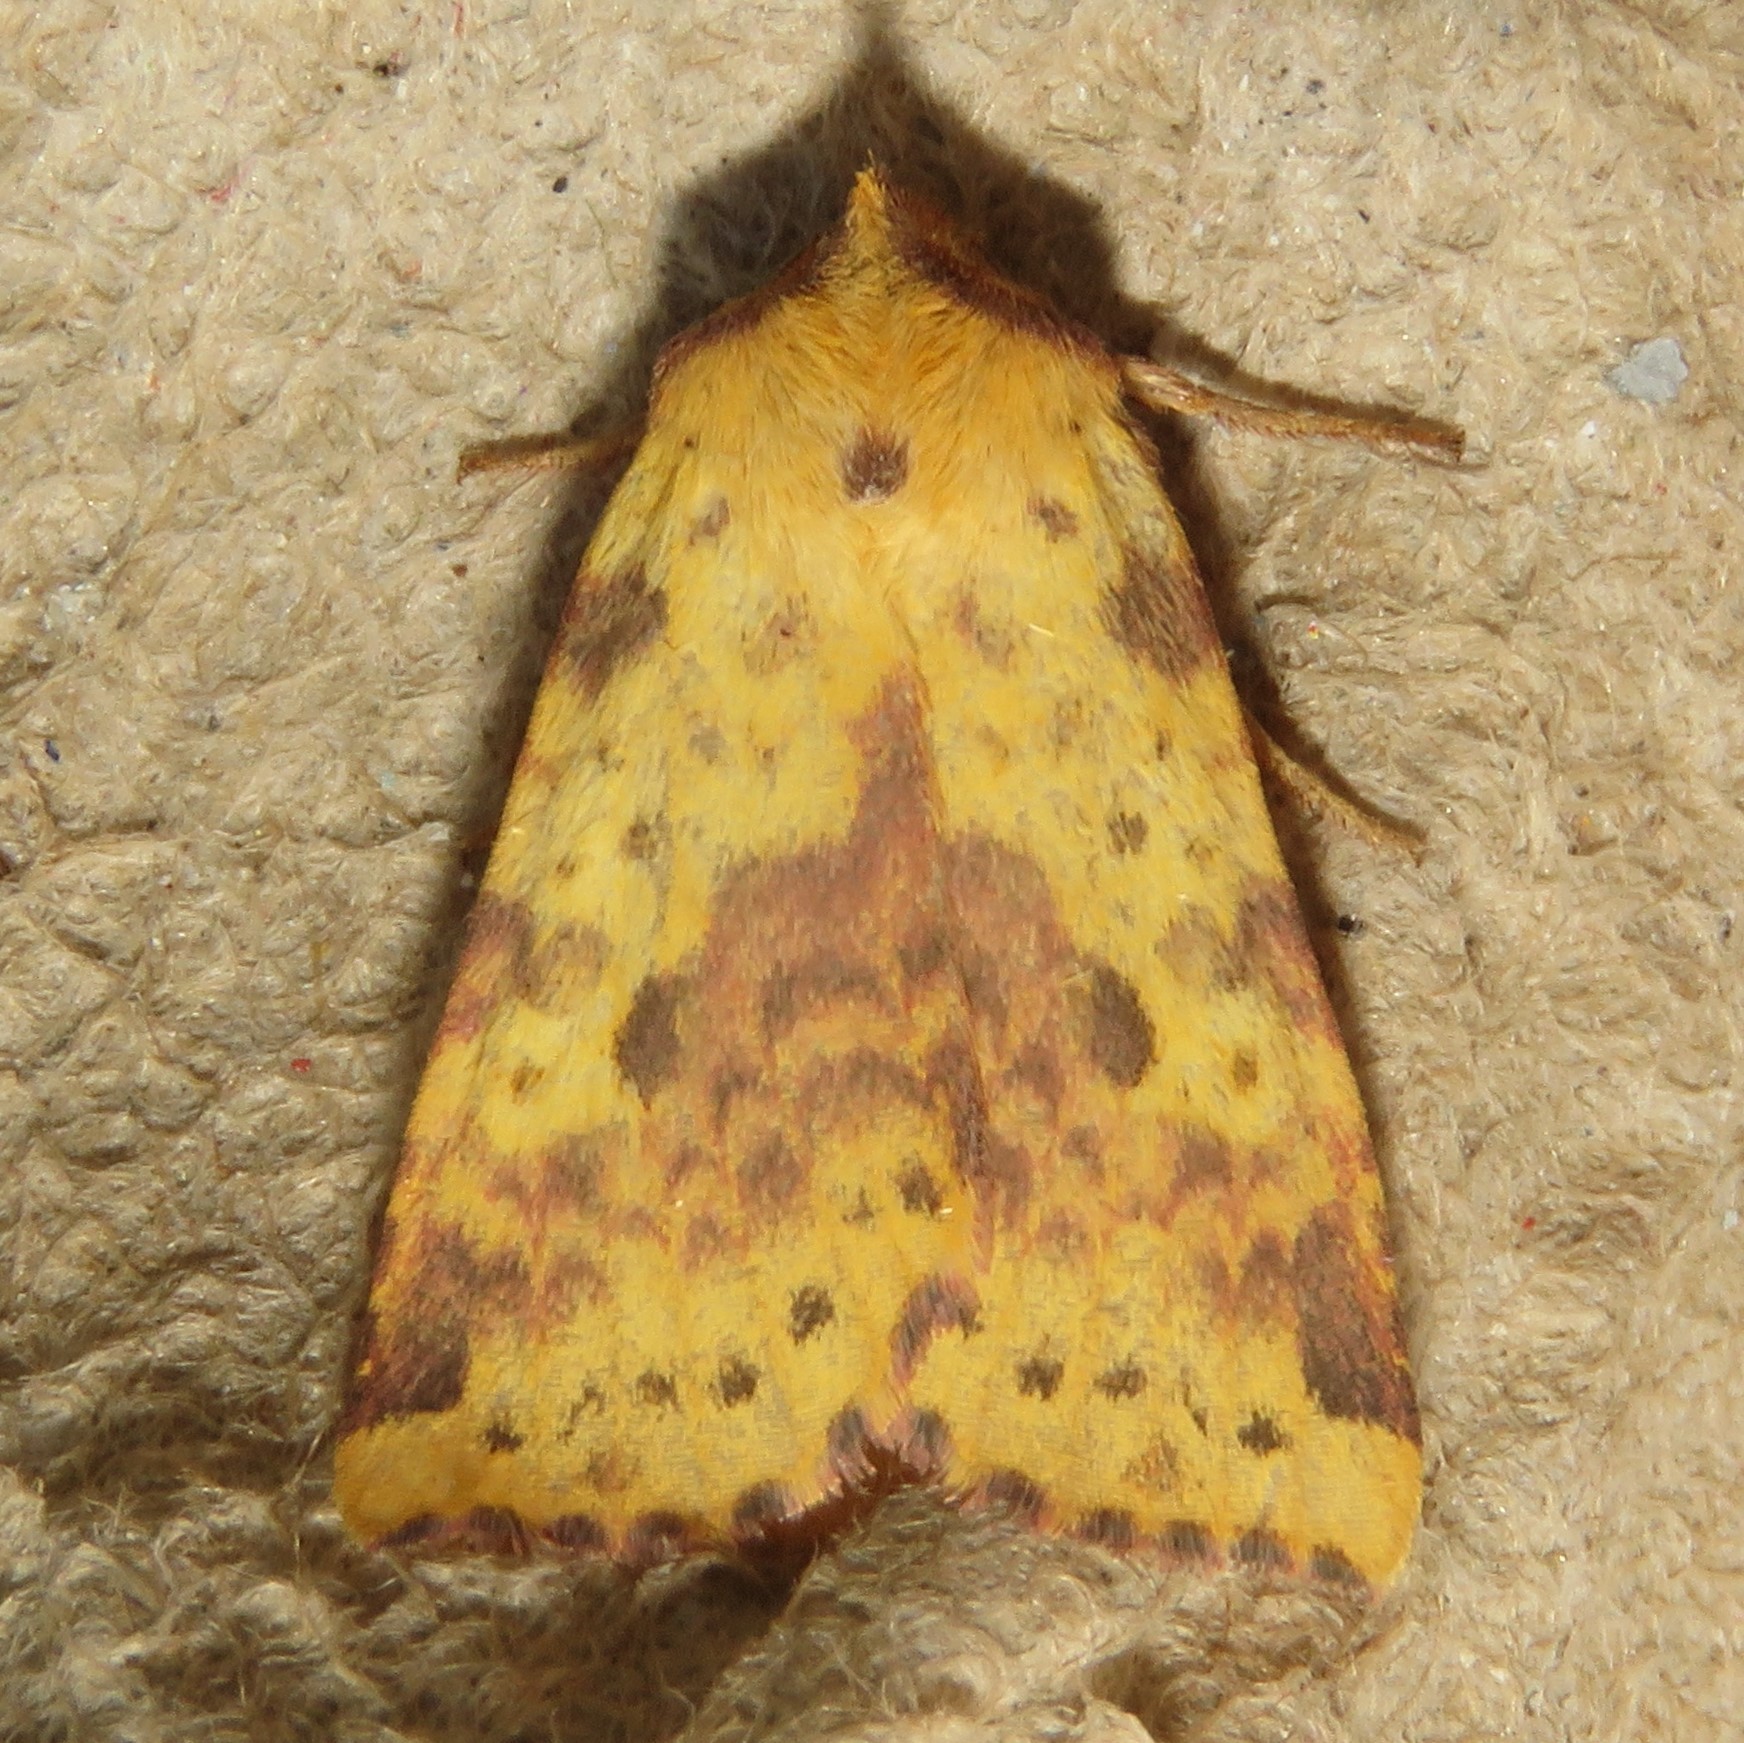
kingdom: Animalia
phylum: Arthropoda
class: Insecta
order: Lepidoptera
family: Noctuidae
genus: Xanthia
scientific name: Xanthia tatago
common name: Pink-banded sallow
